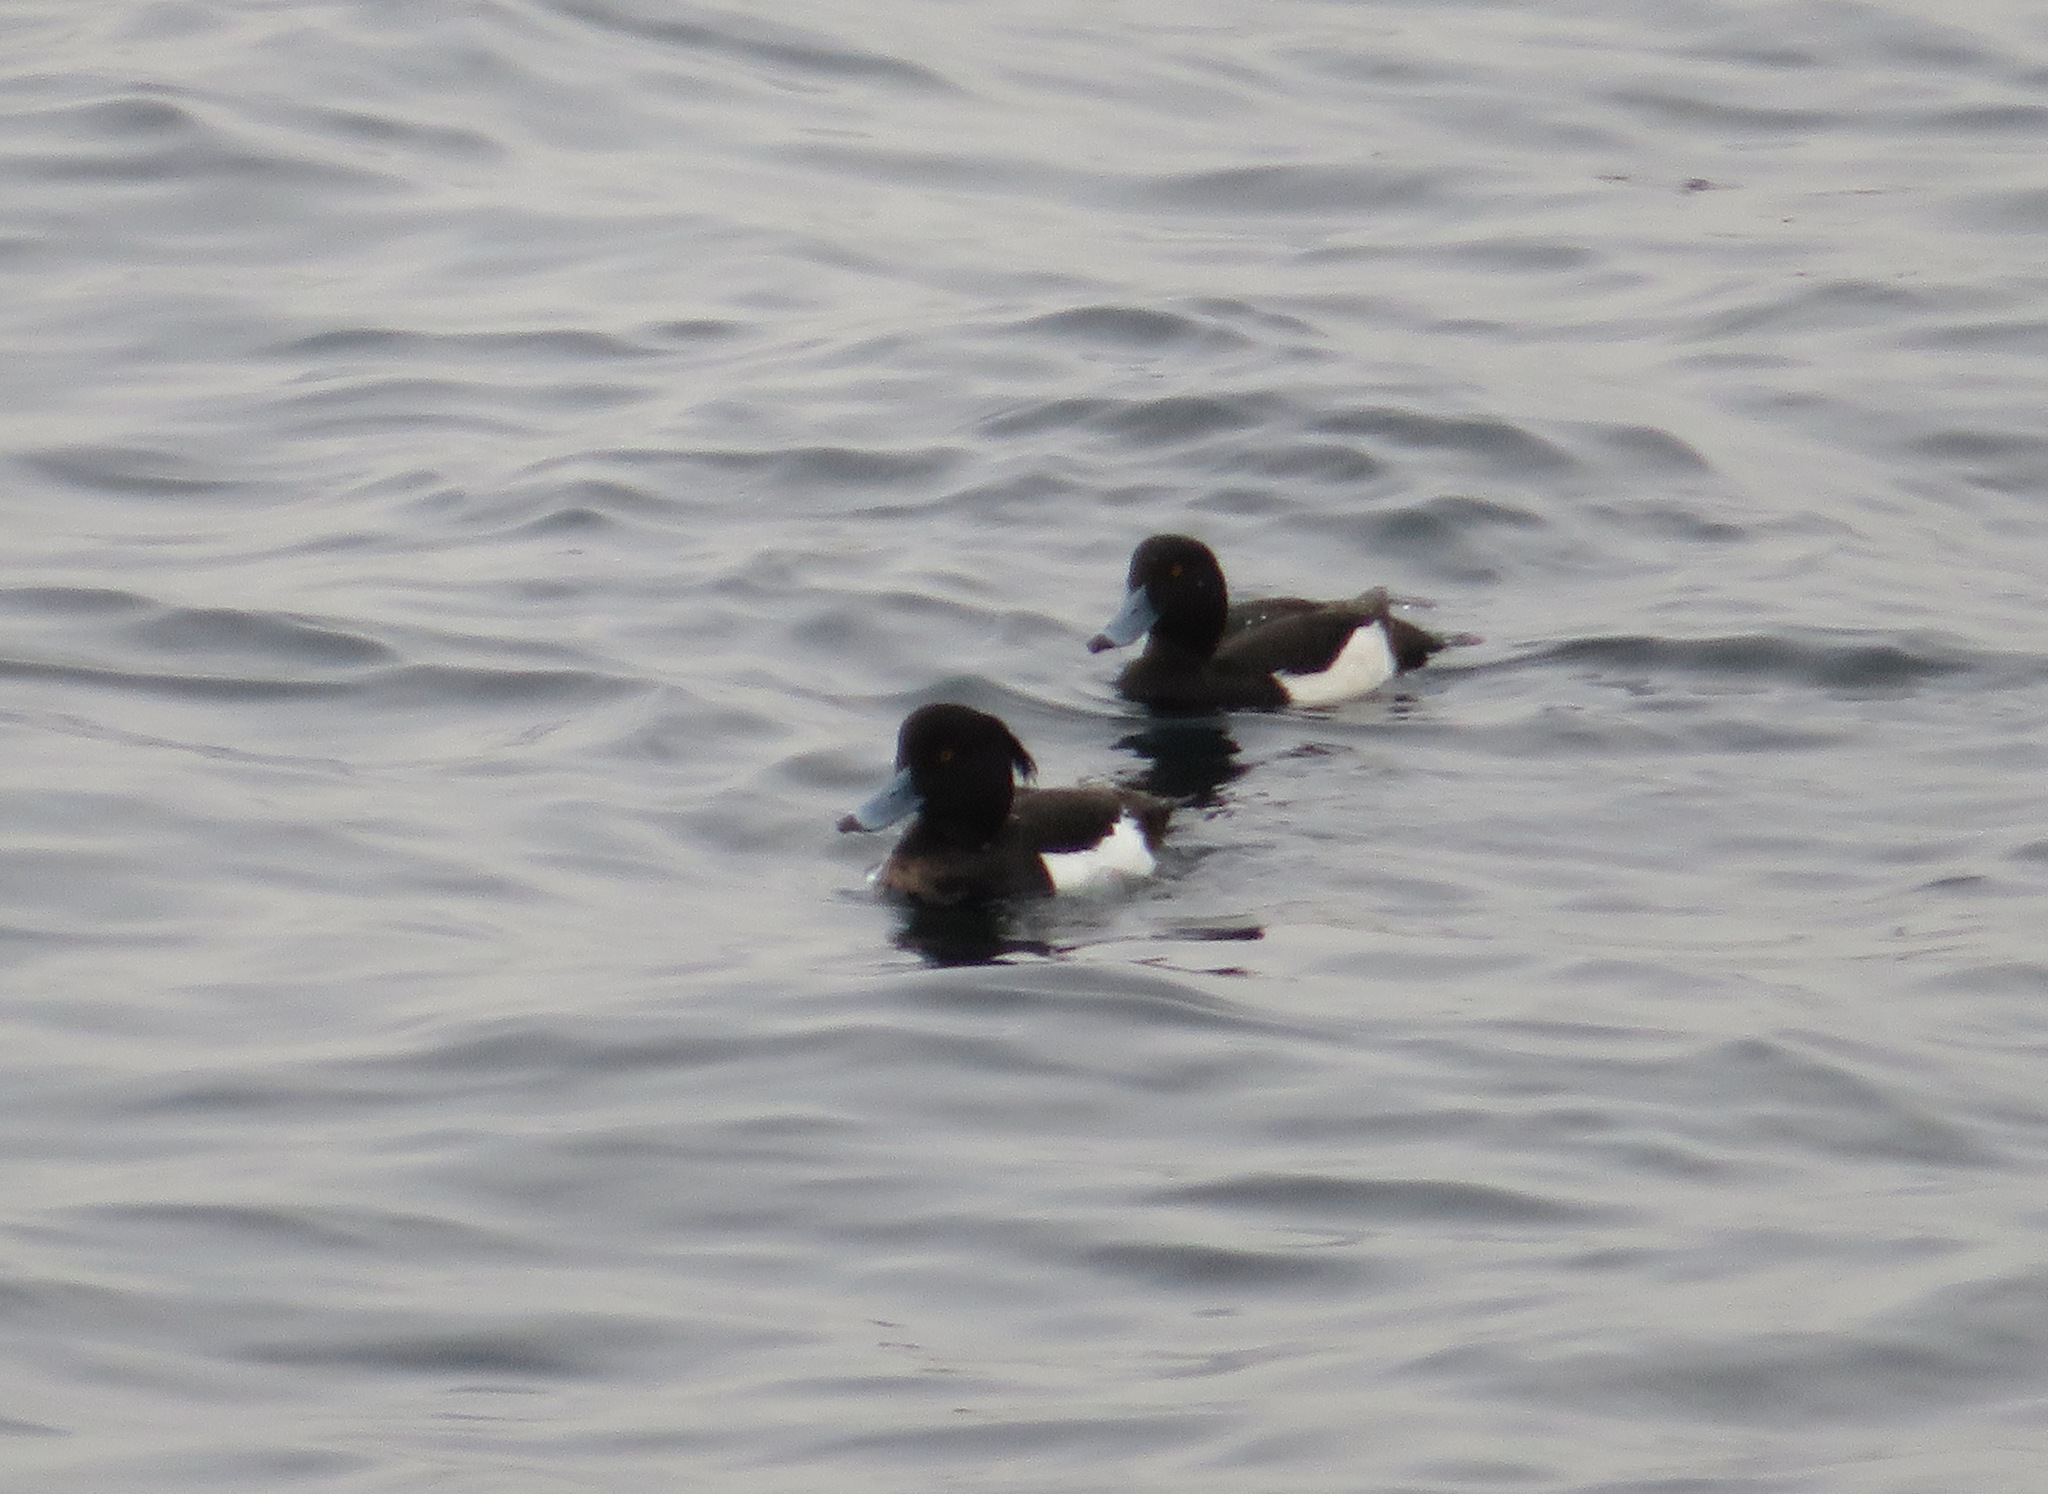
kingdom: Animalia
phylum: Chordata
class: Aves
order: Anseriformes
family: Anatidae
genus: Aythya
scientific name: Aythya fuligula
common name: Tufted duck
